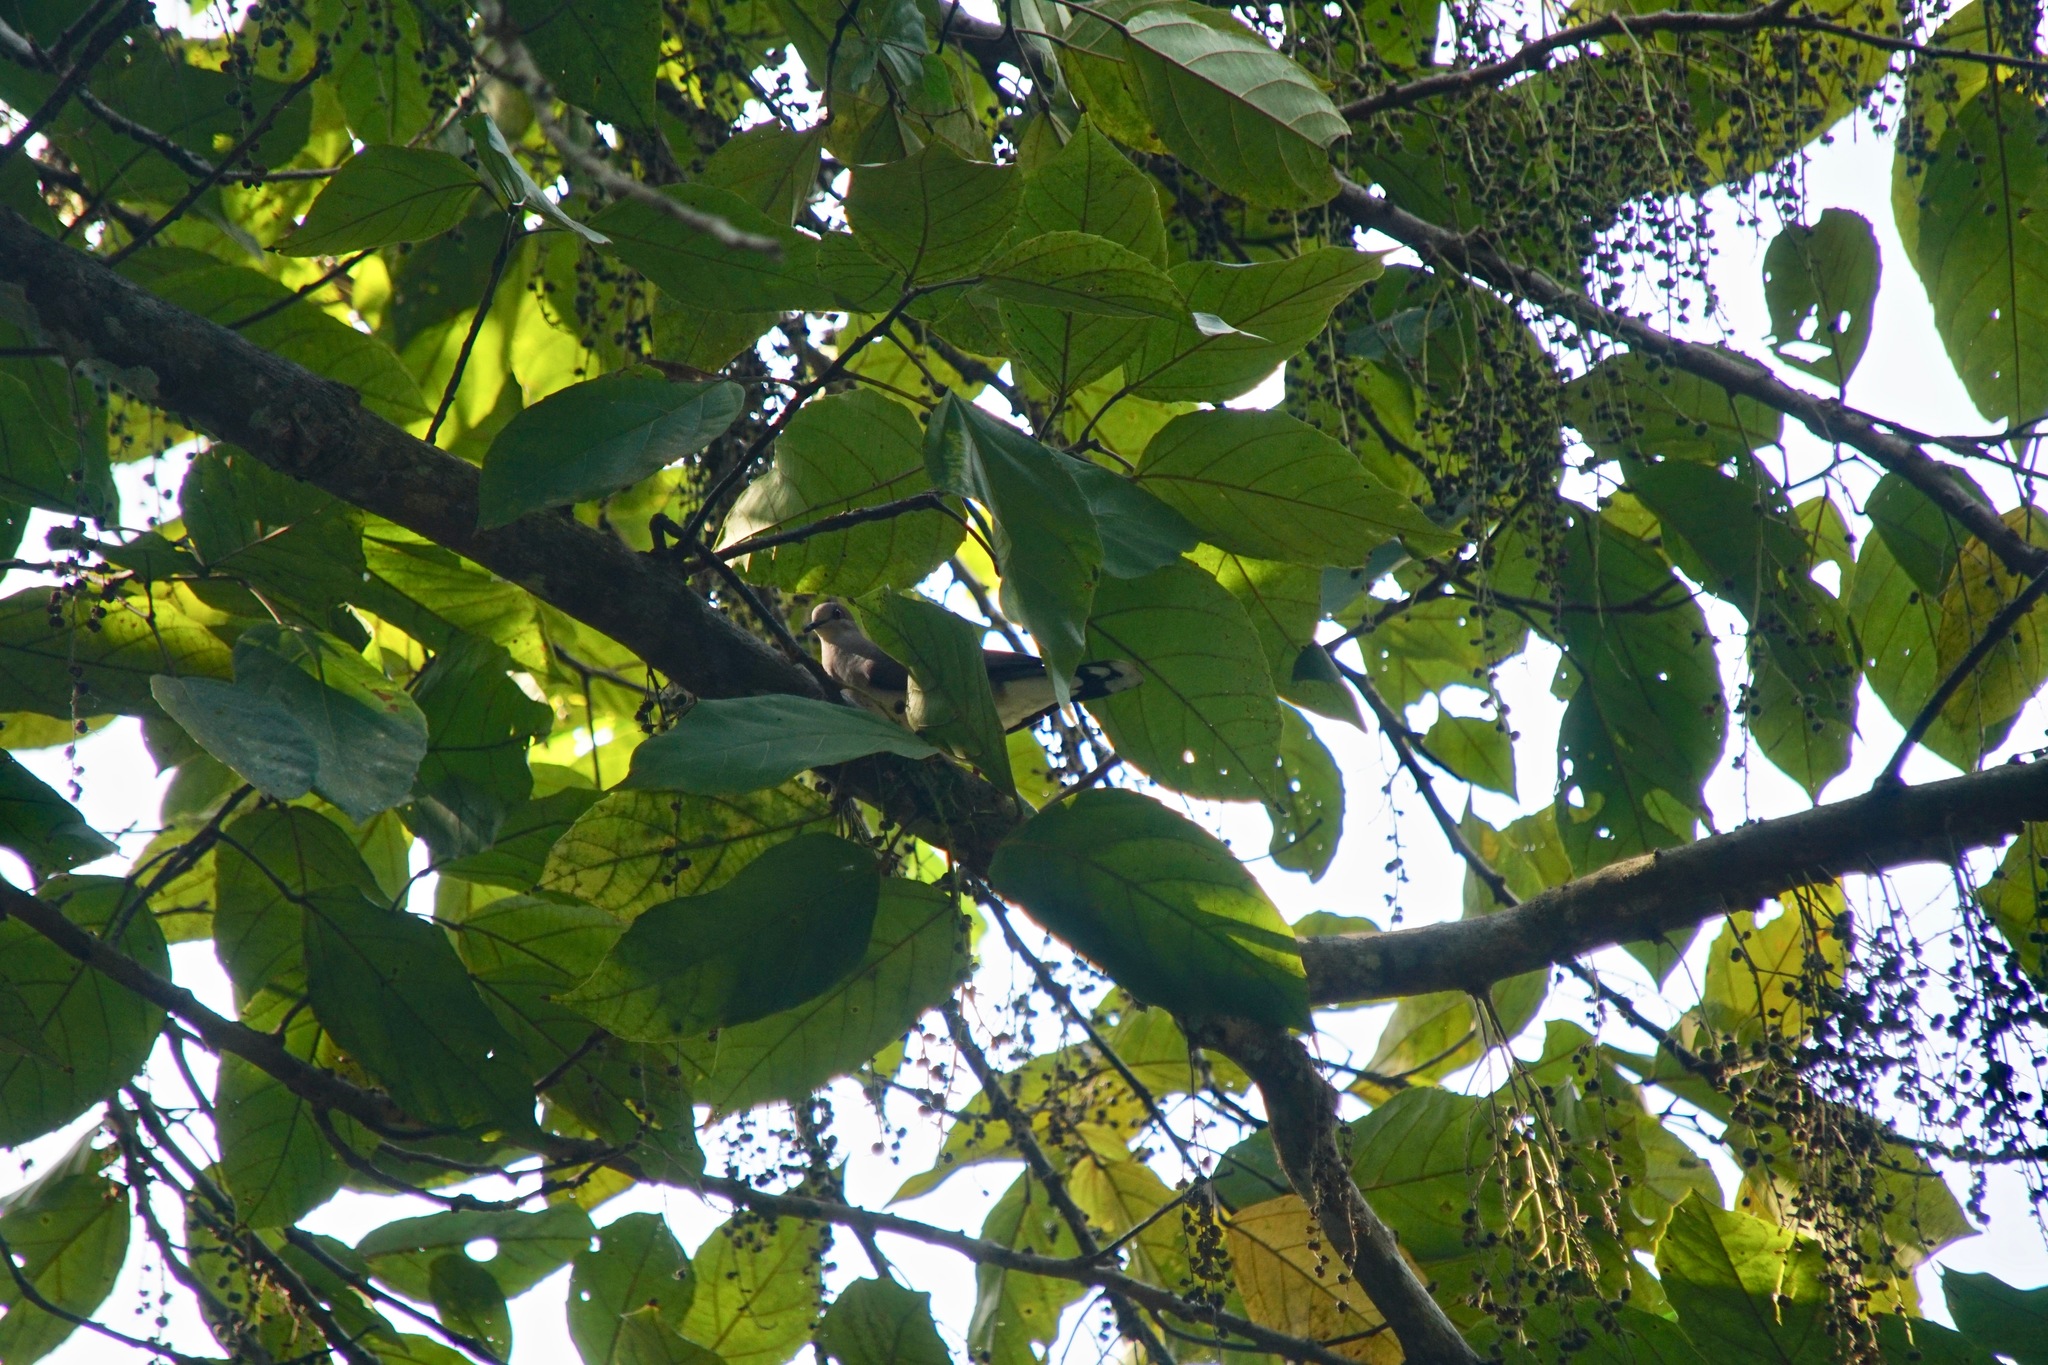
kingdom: Animalia
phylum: Chordata
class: Aves
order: Columbiformes
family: Columbidae
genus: Leptotila
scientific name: Leptotila verreauxi
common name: White-tipped dove
